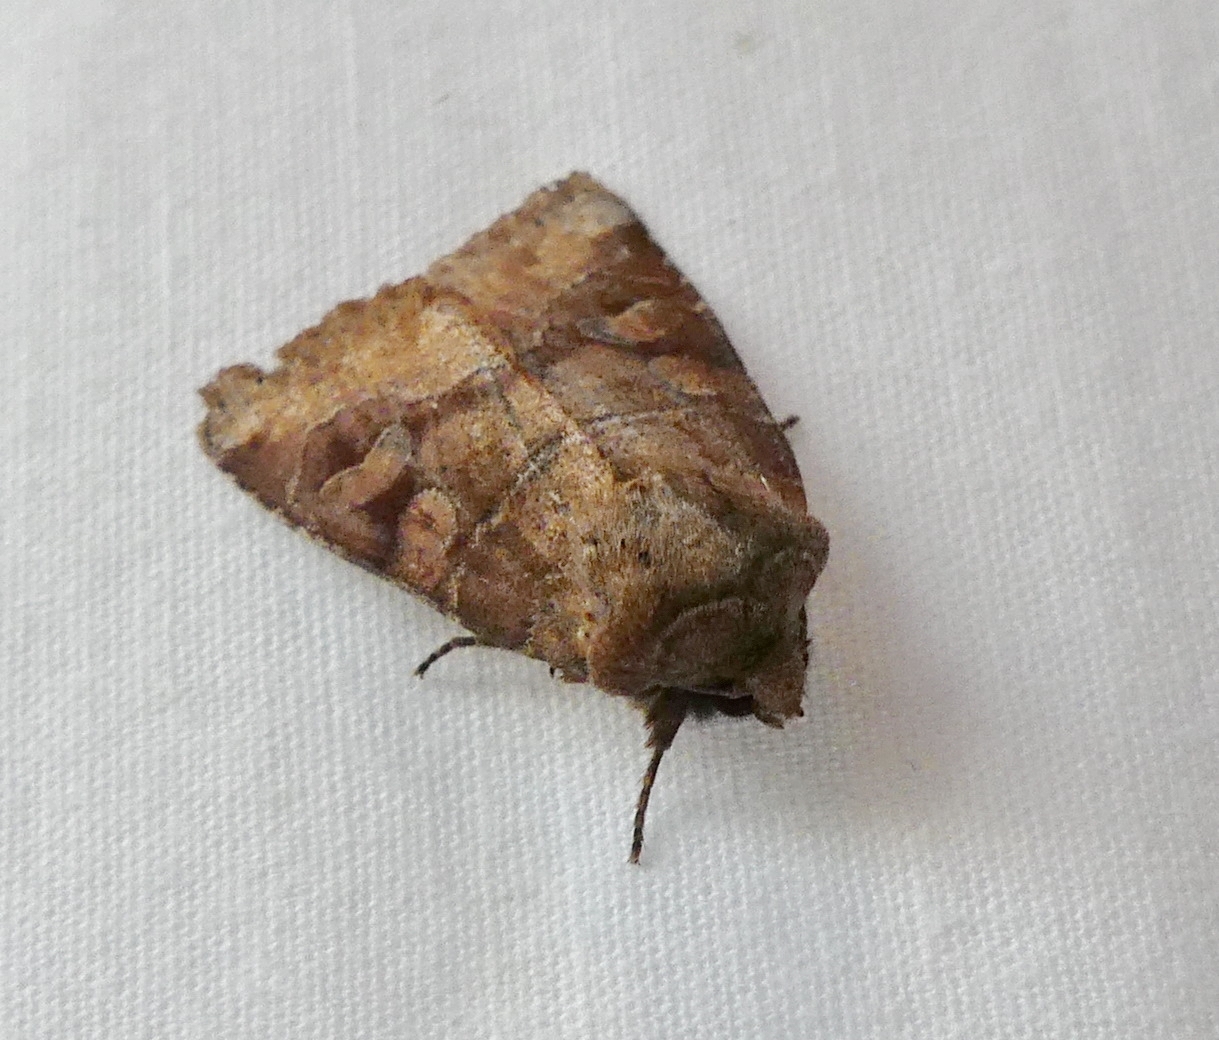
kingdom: Animalia
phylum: Arthropoda
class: Insecta
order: Lepidoptera
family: Noctuidae
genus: Crocigrapha
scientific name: Crocigrapha normani
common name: Norman's quaker
